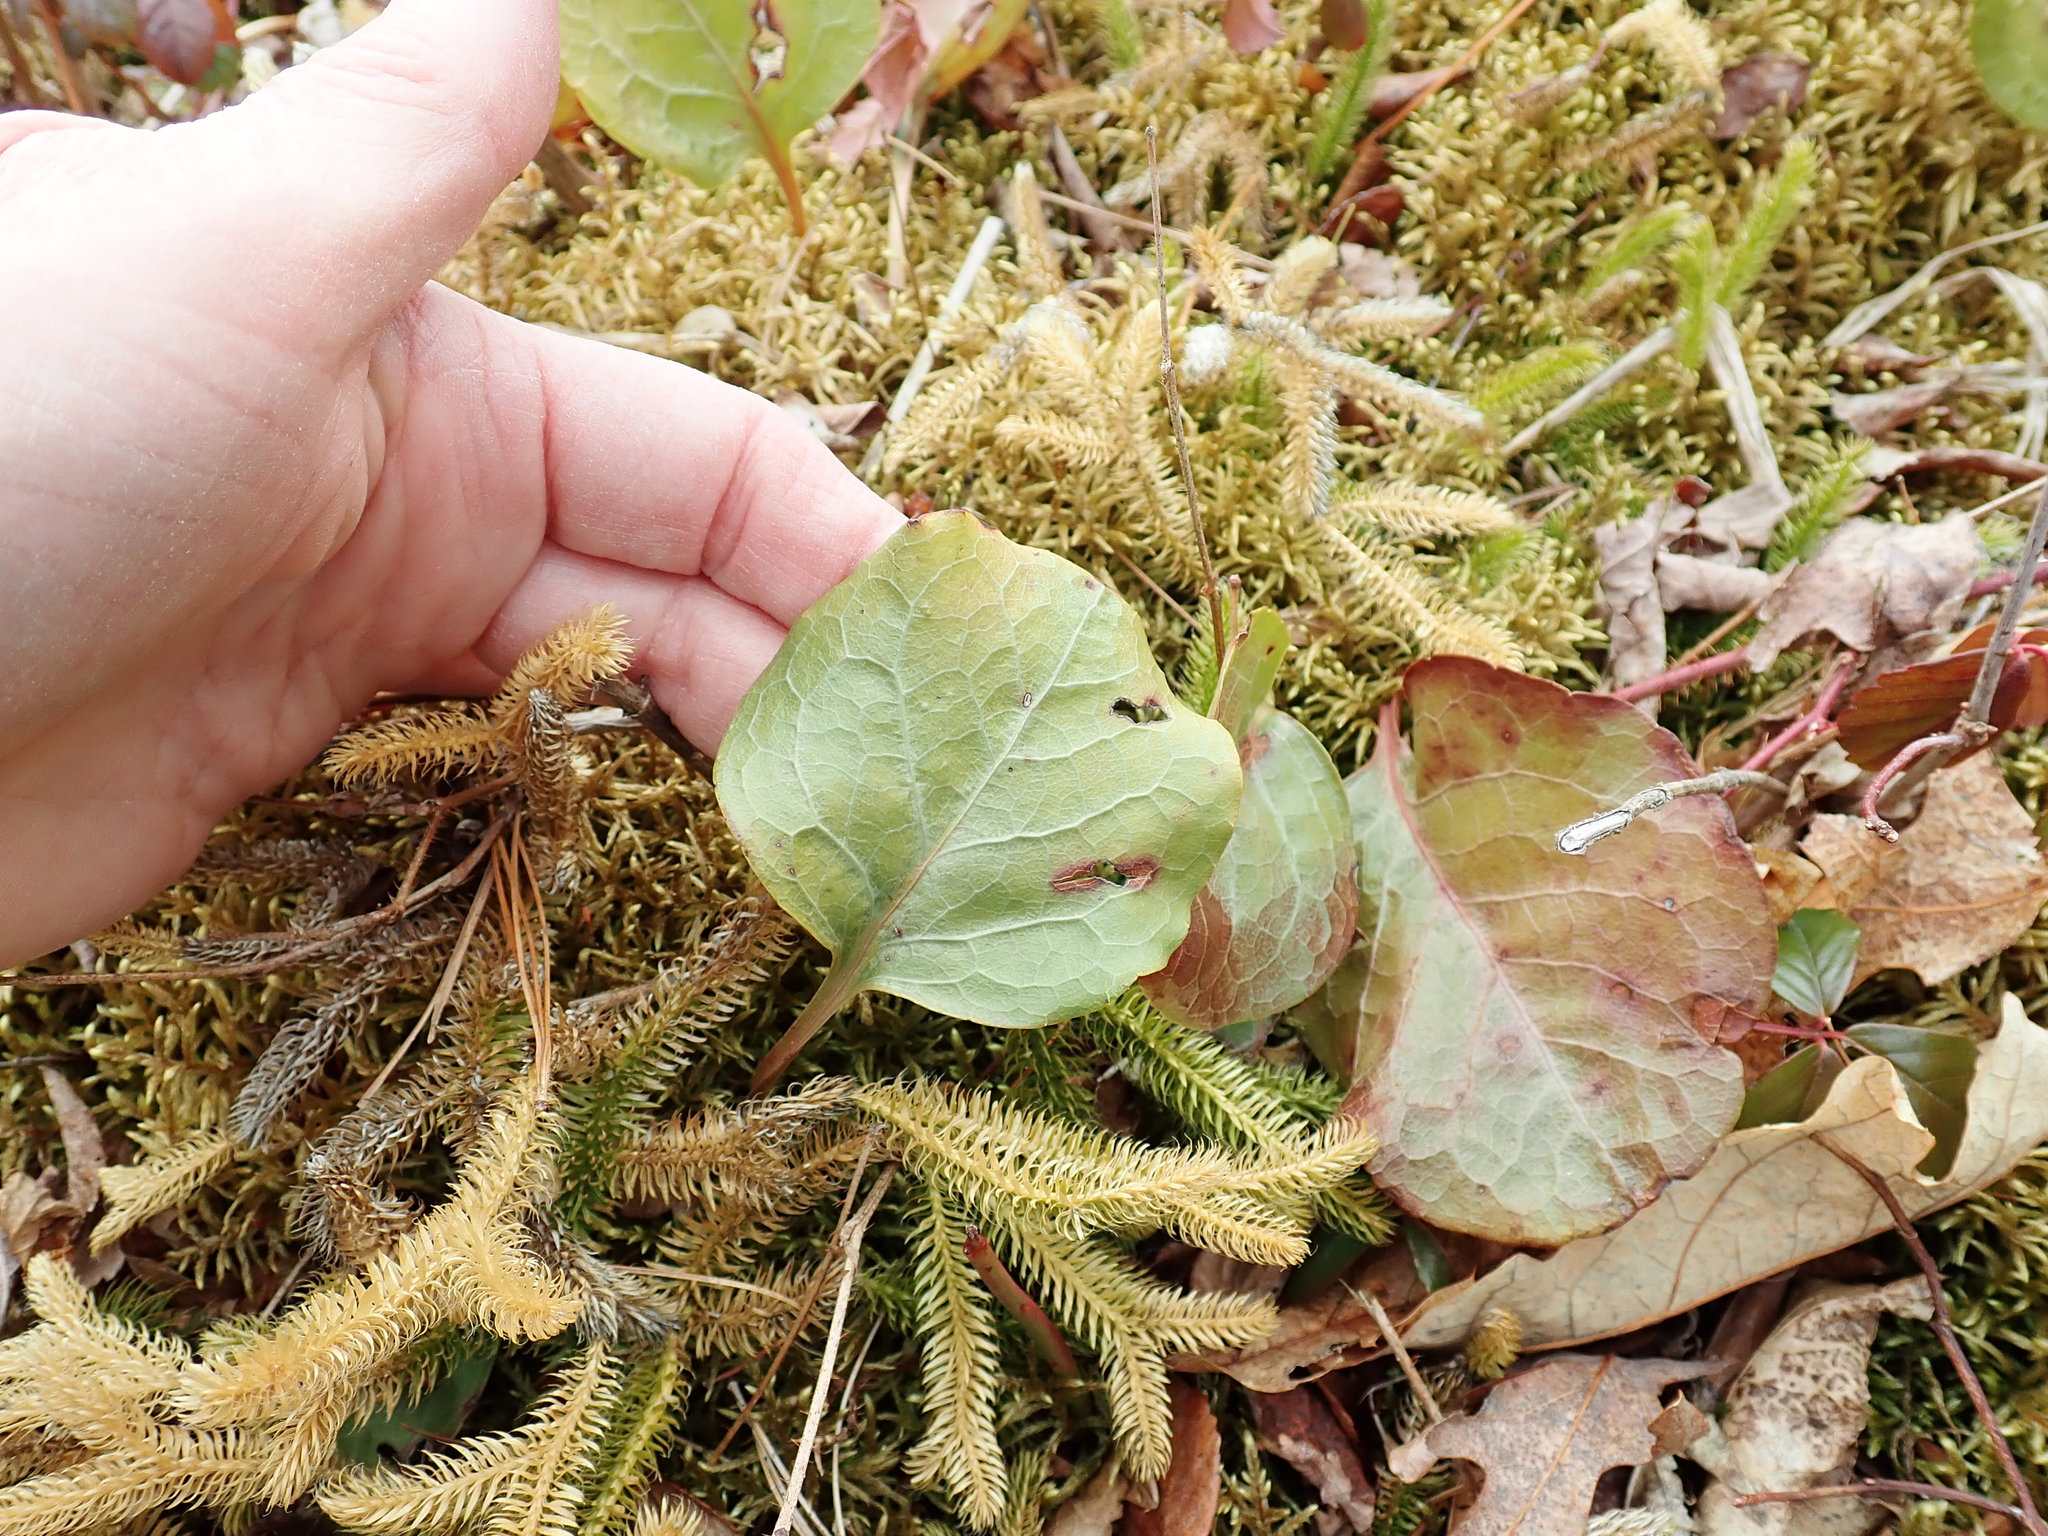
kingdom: Plantae
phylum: Tracheophyta
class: Magnoliopsida
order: Ericales
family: Ericaceae
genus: Pyrola
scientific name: Pyrola elliptica
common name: Shinleaf
